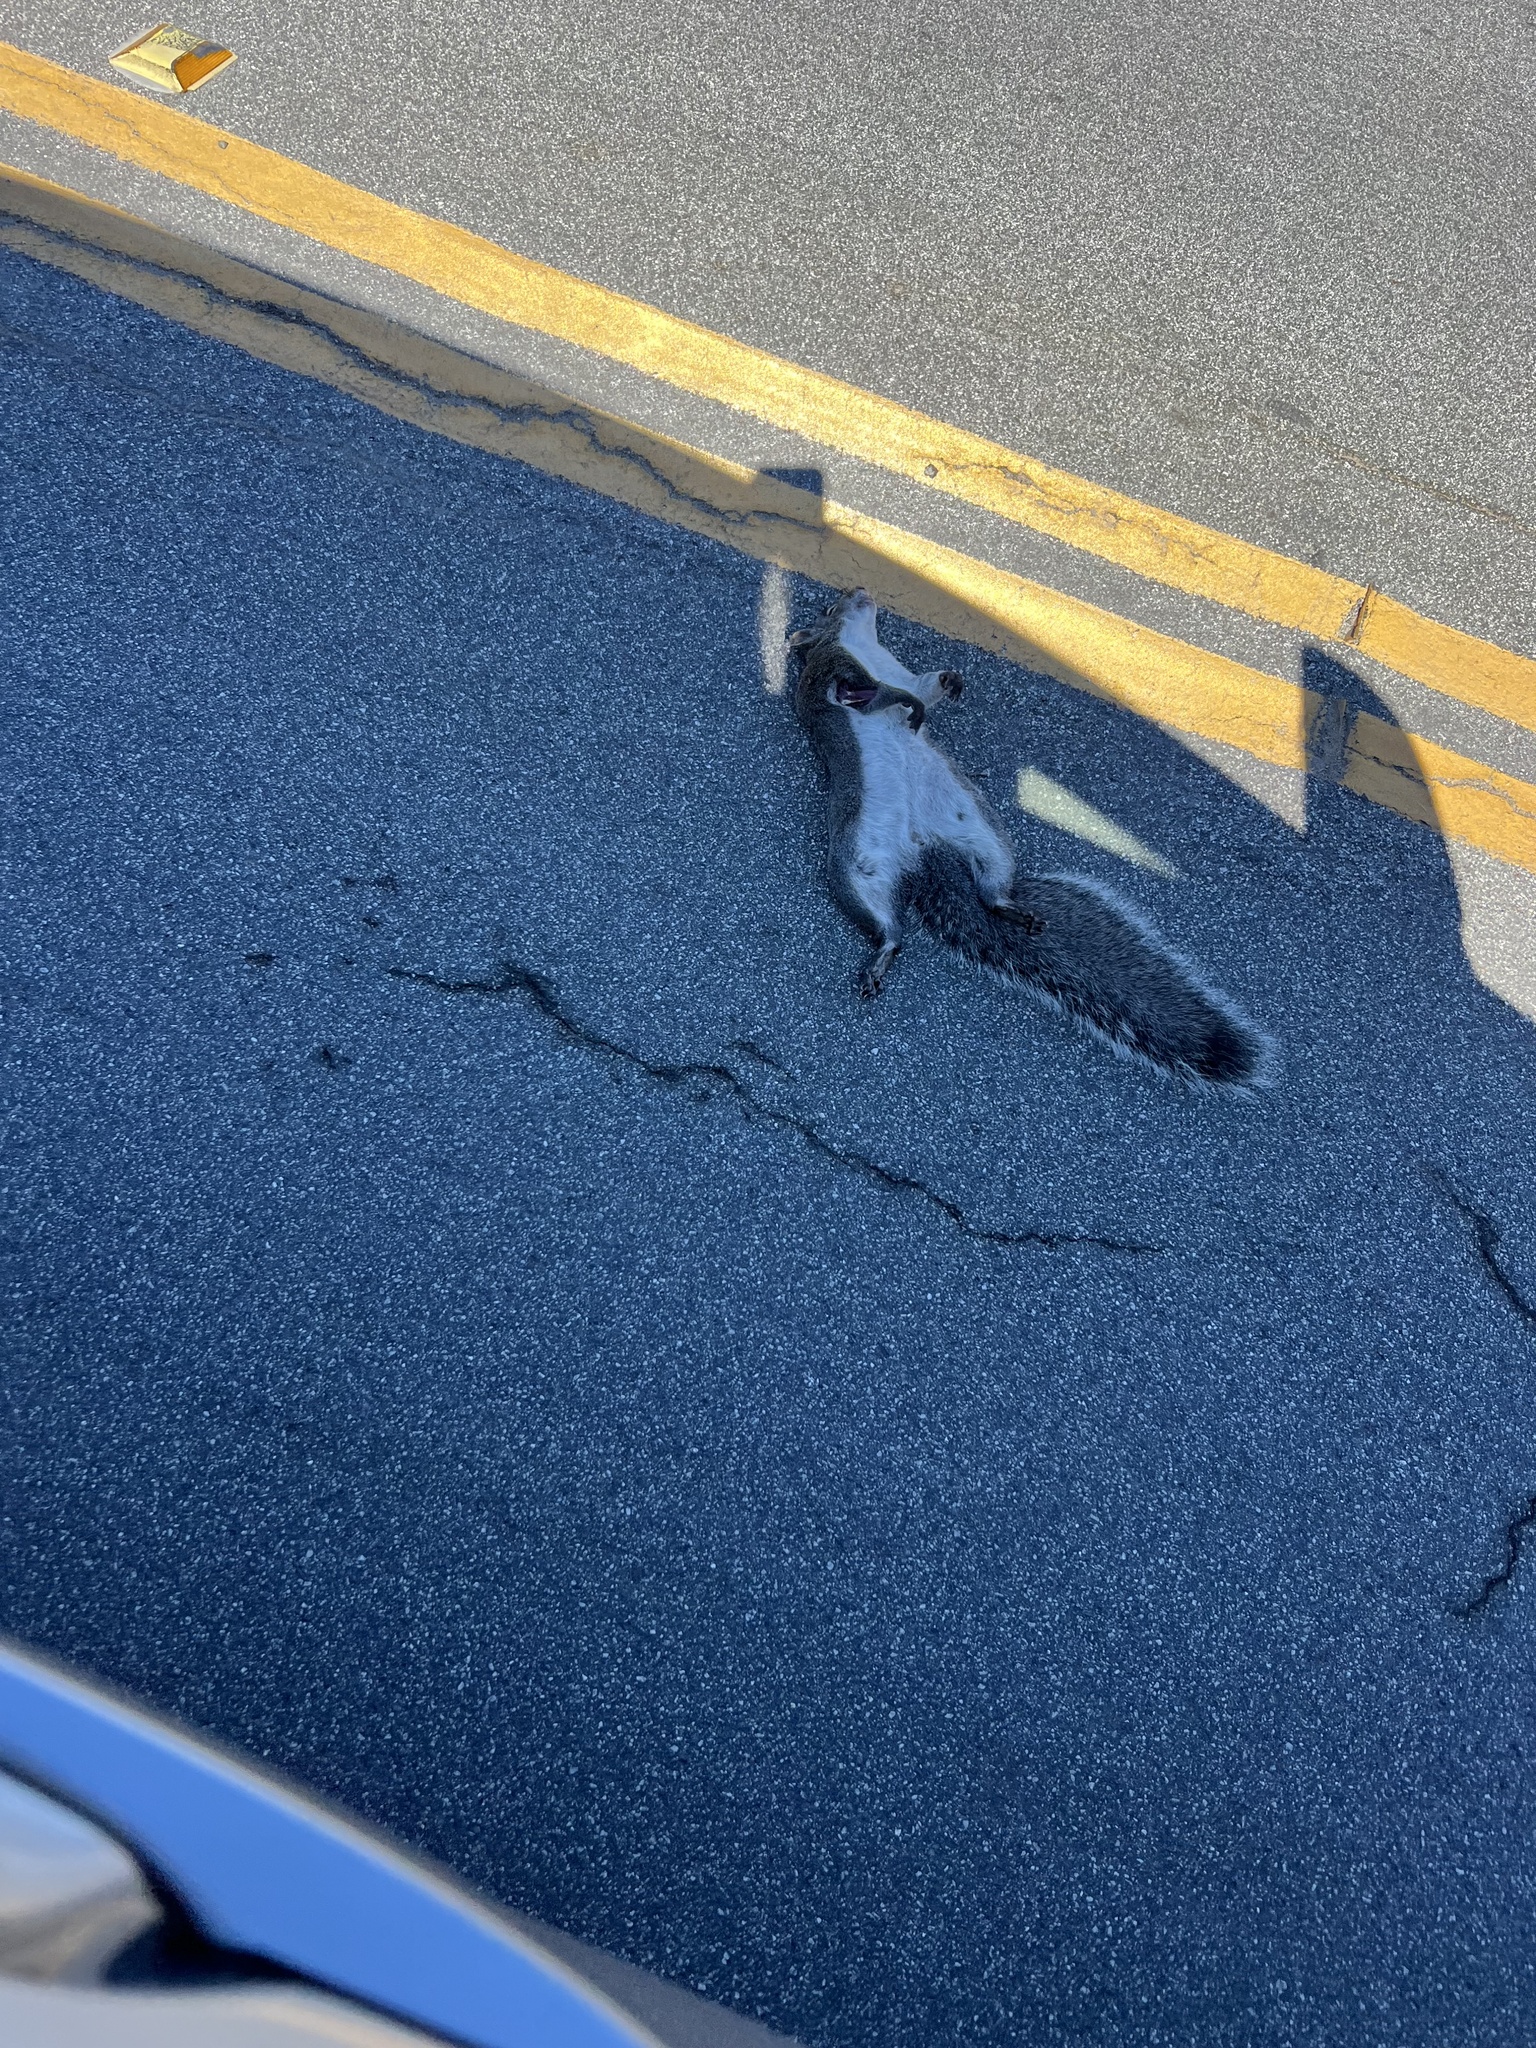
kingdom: Animalia
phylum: Chordata
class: Mammalia
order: Rodentia
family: Sciuridae
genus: Sciurus
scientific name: Sciurus griseus
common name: Western gray squirrel
